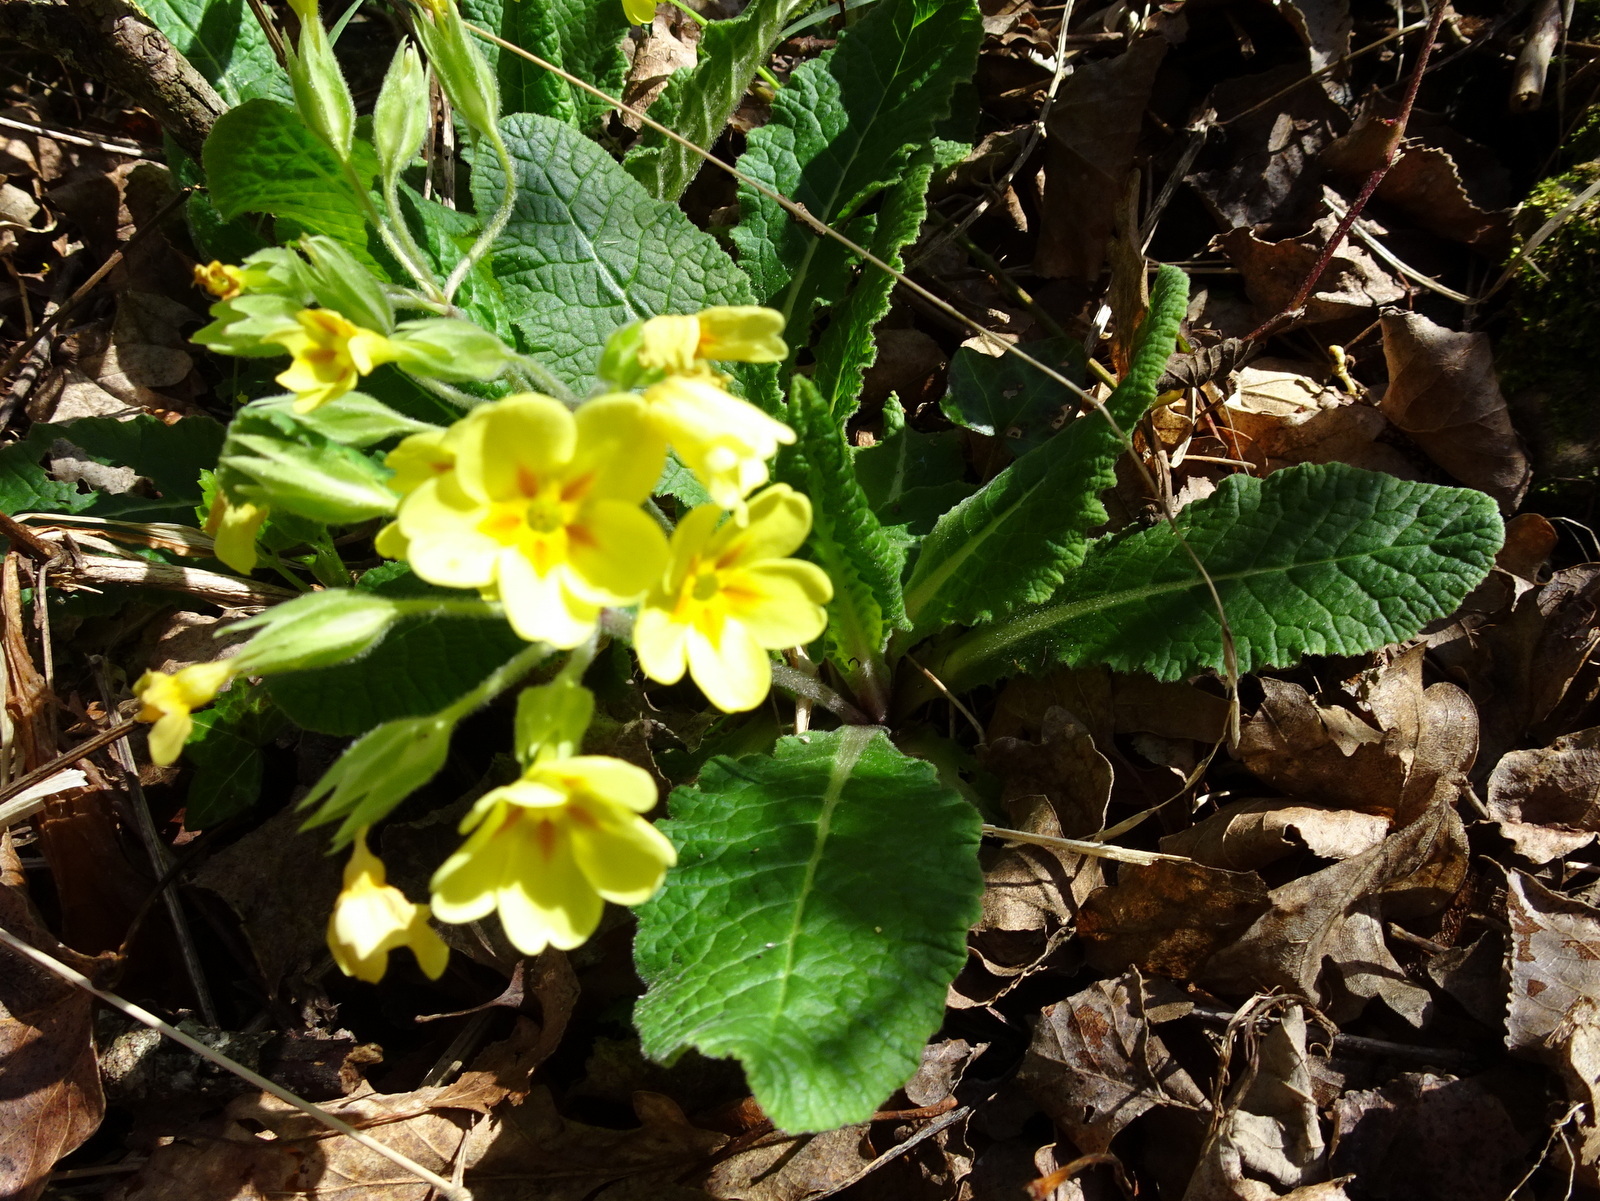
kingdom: Plantae
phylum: Tracheophyta
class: Magnoliopsida
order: Ericales
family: Primulaceae
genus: Primula
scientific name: Primula elatior
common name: Oxlip
